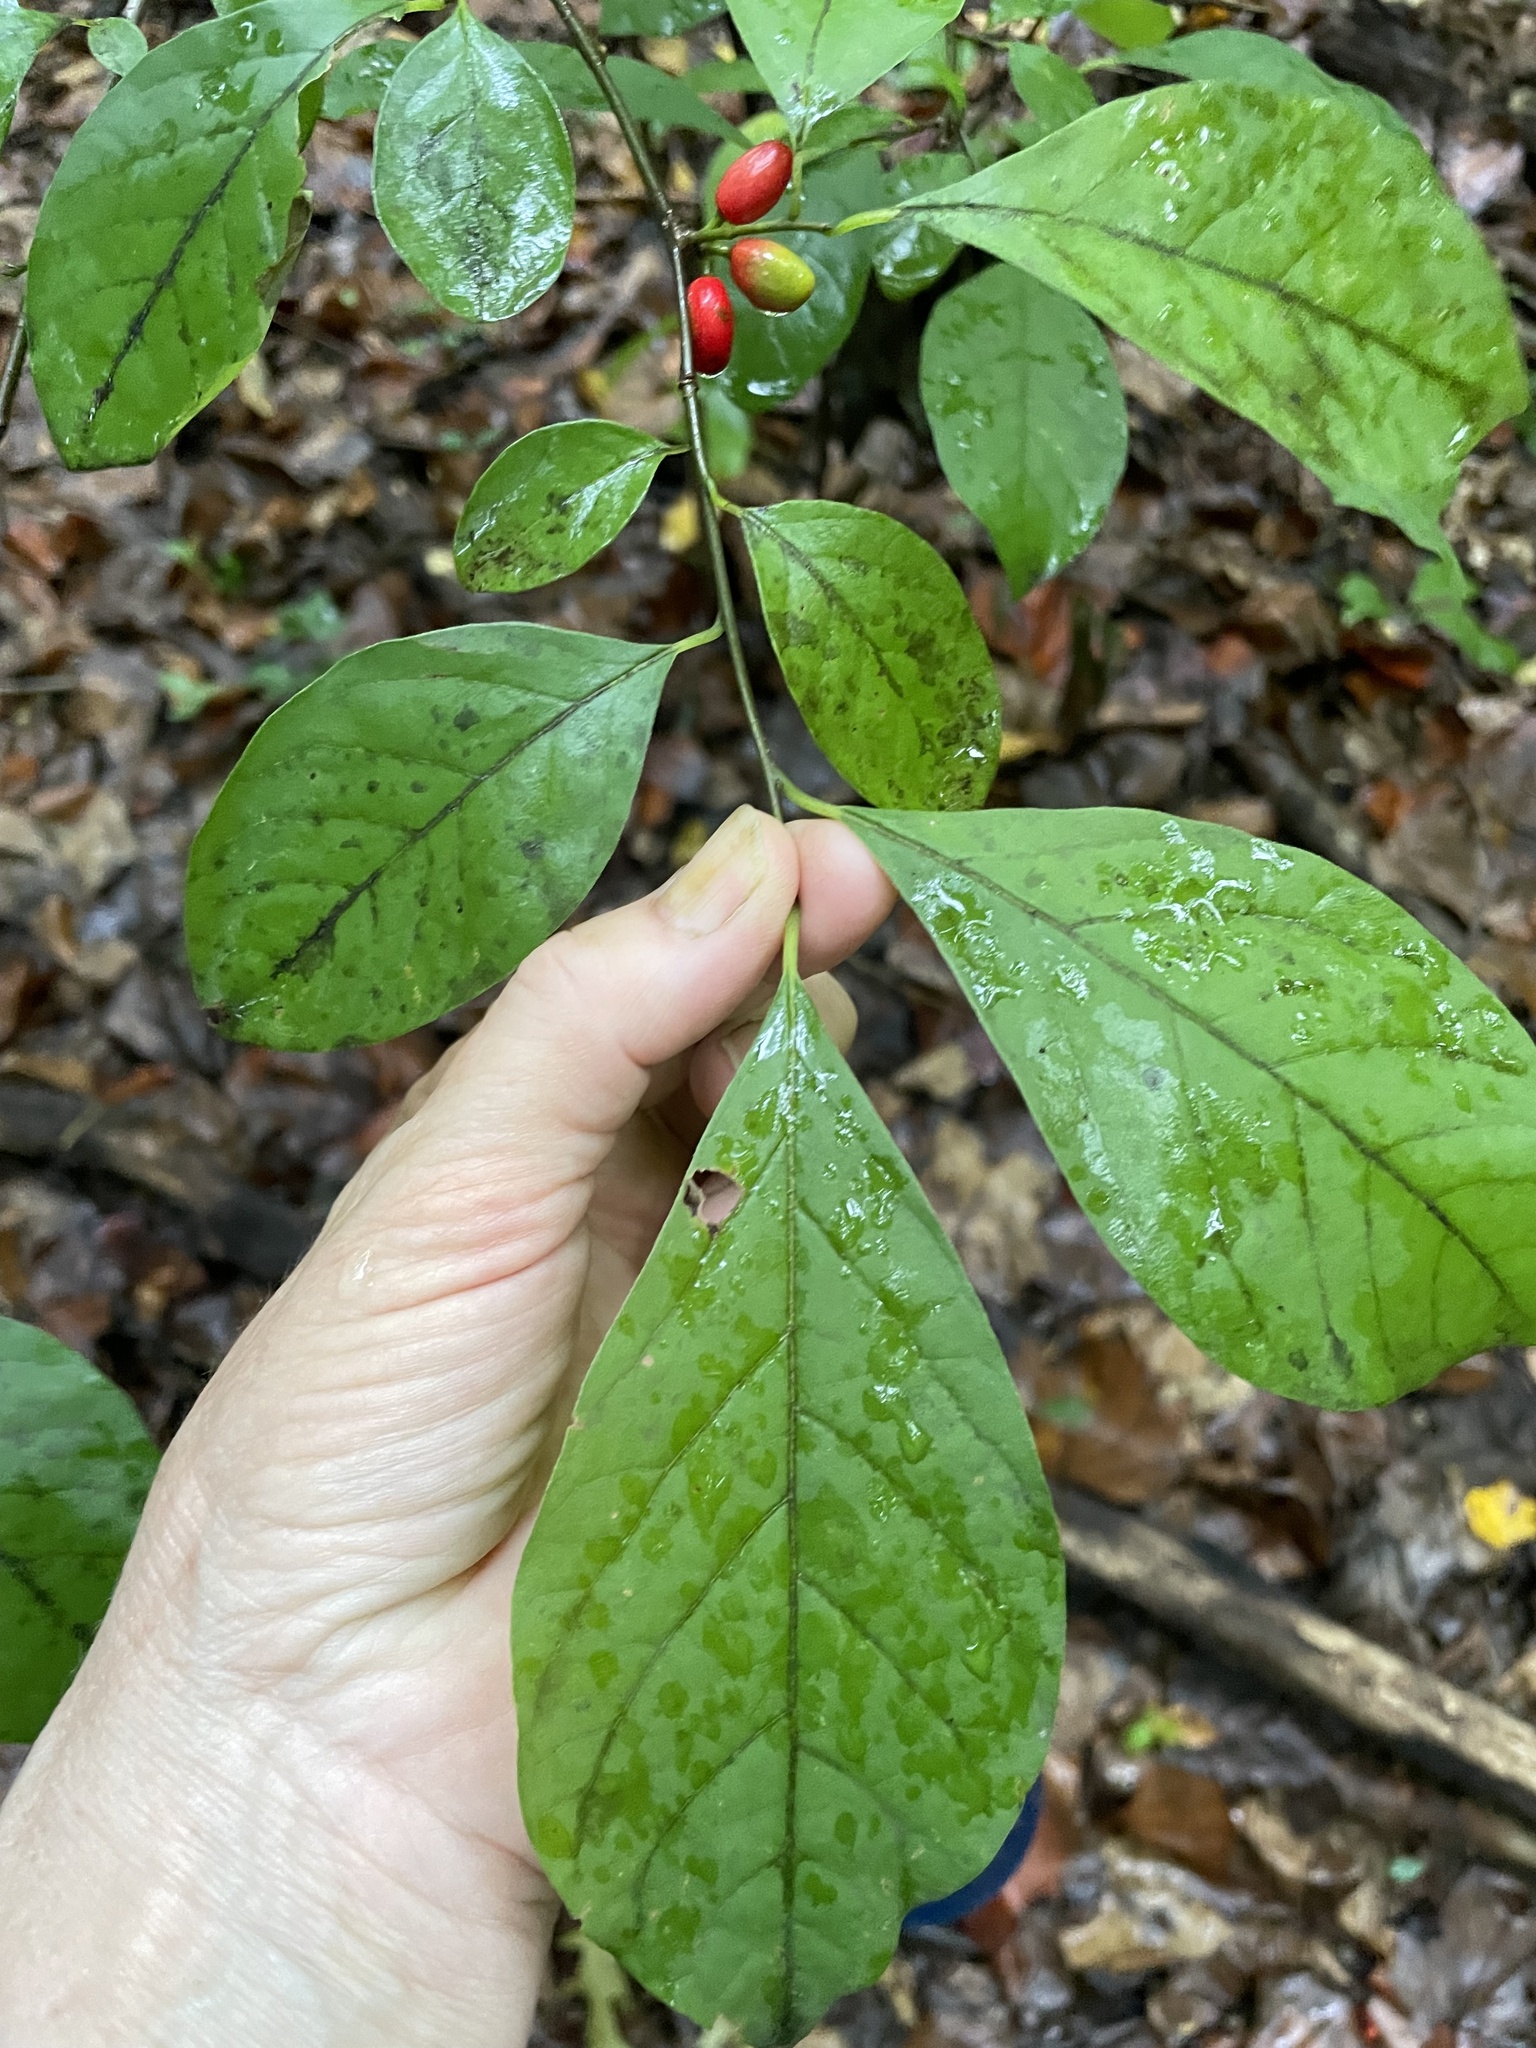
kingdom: Plantae
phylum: Tracheophyta
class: Magnoliopsida
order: Laurales
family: Lauraceae
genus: Lindera
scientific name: Lindera benzoin
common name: Spicebush
